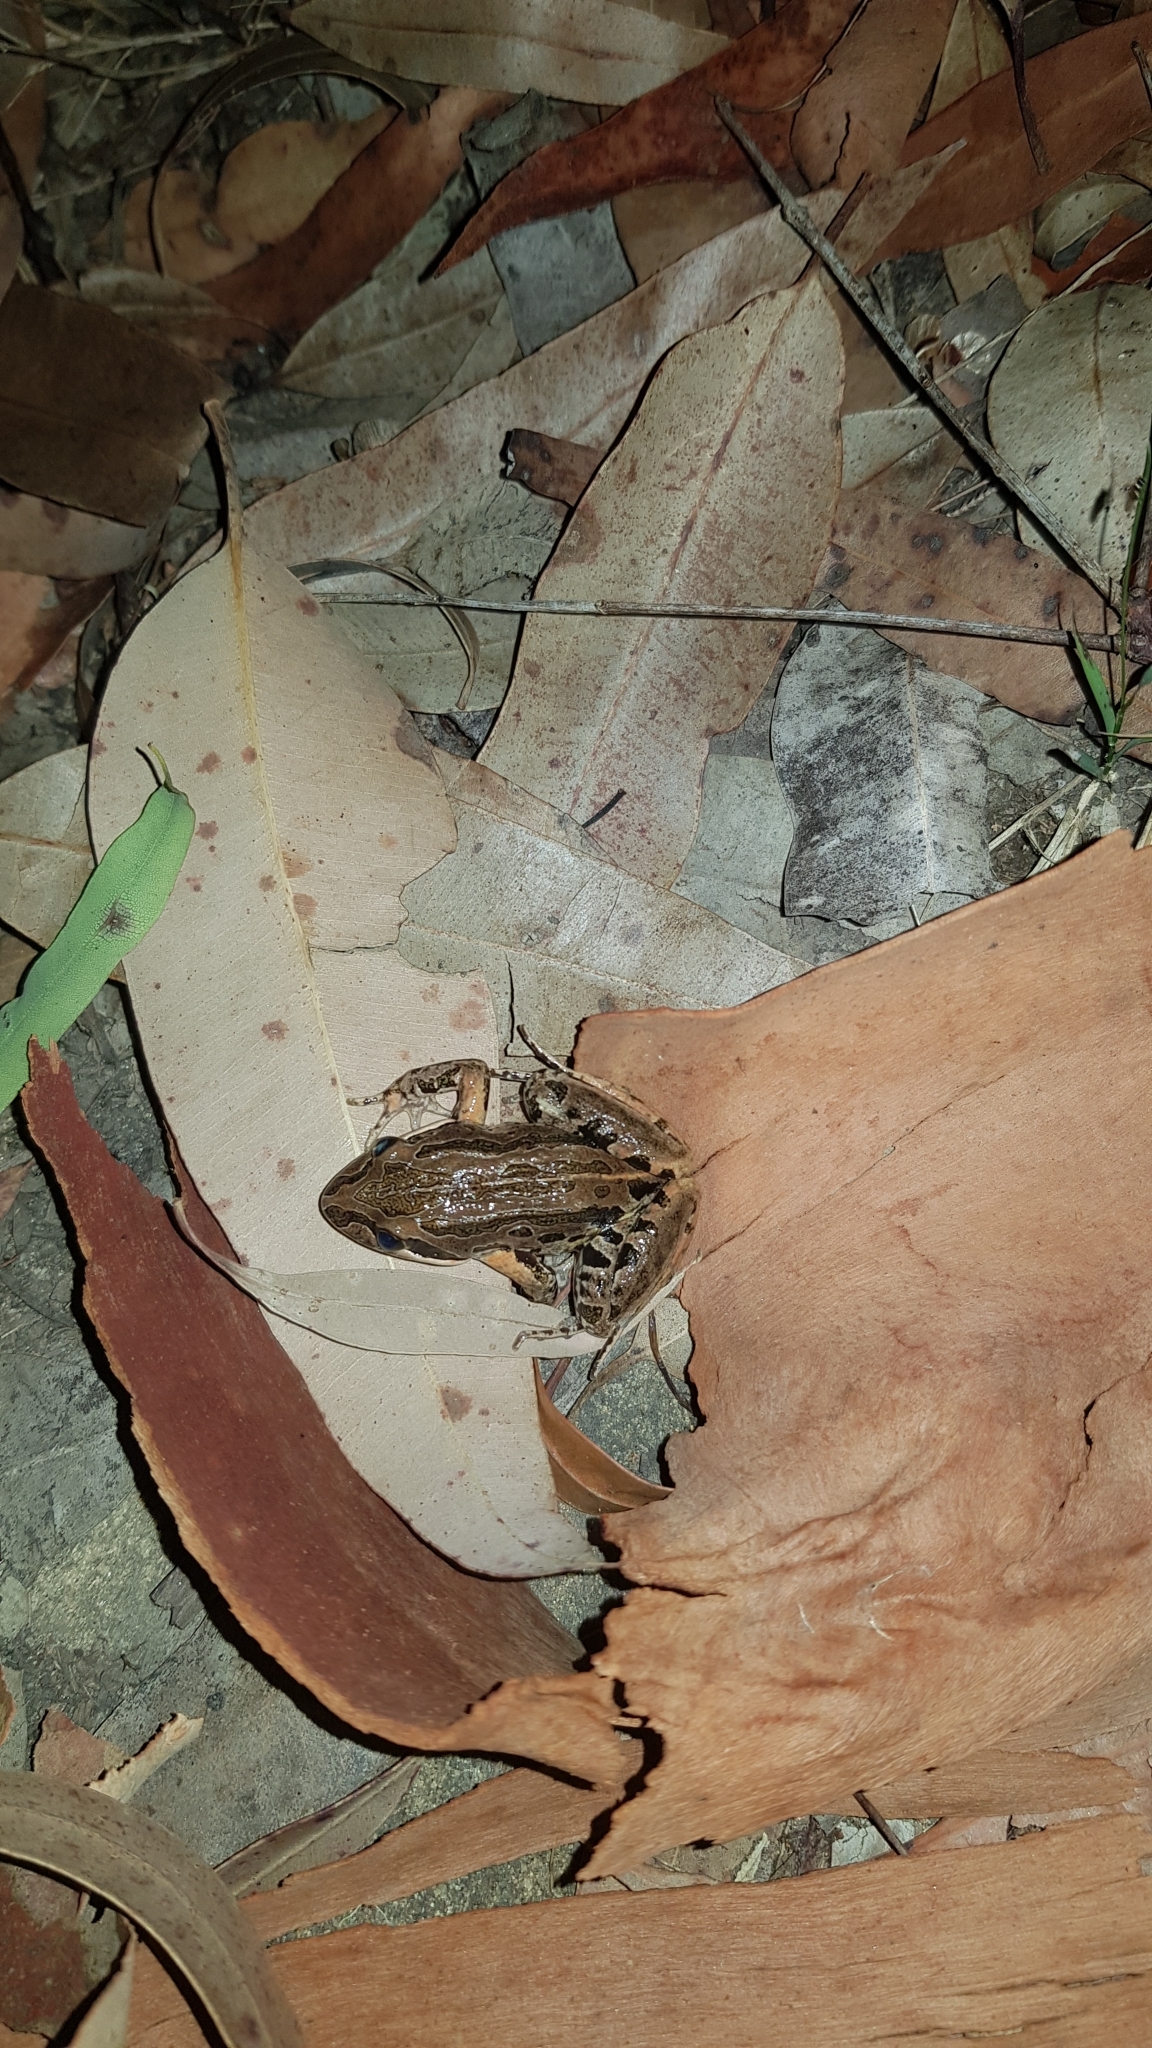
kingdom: Animalia
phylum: Chordata
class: Amphibia
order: Anura
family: Limnodynastidae
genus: Limnodynastes
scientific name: Limnodynastes peronii
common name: Brown frog
